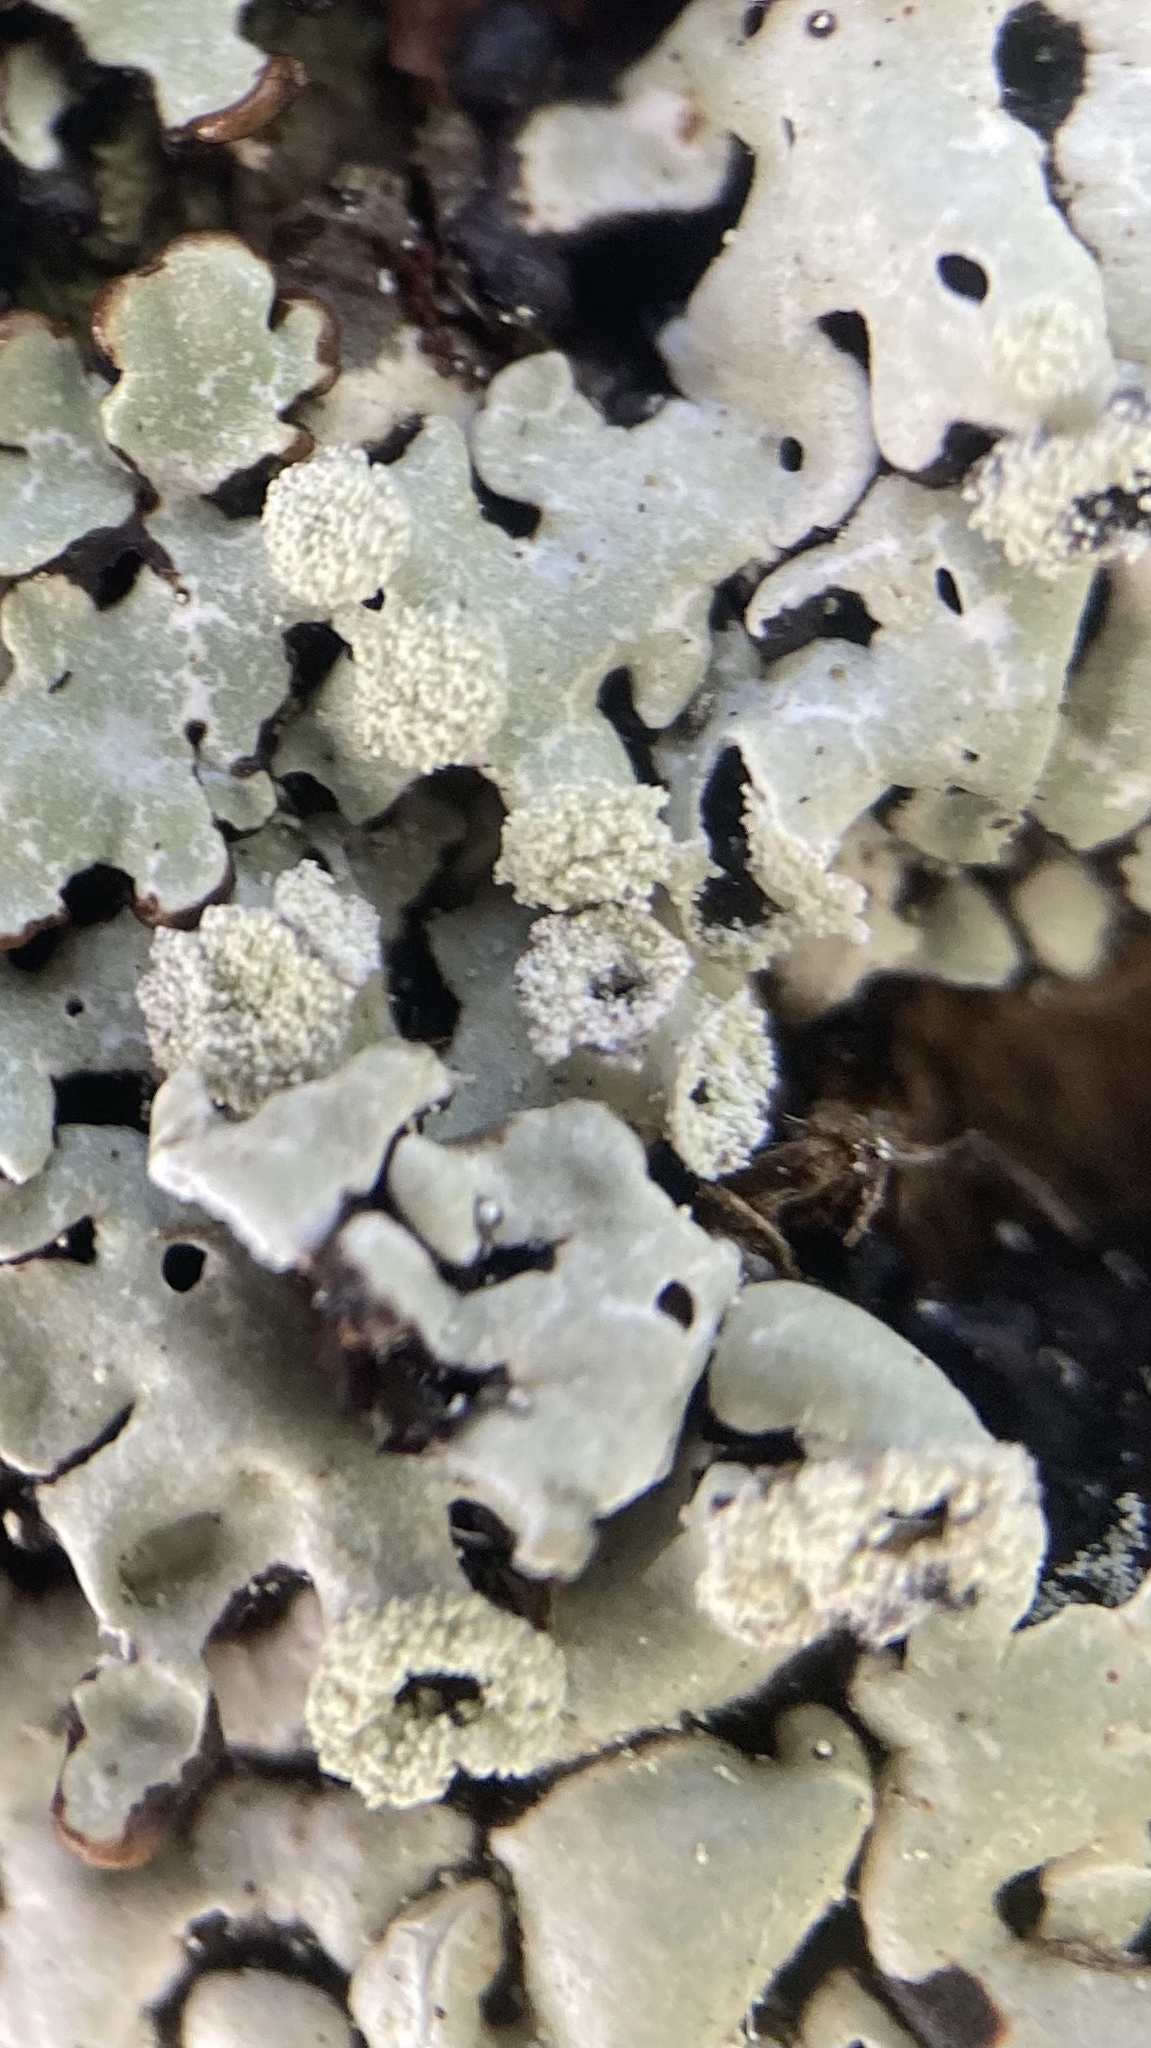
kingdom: Fungi
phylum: Ascomycota
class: Lecanoromycetes
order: Lecanorales
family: Parmeliaceae
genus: Menegazzia
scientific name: Menegazzia terebrata
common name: Magic treeflute lichen
